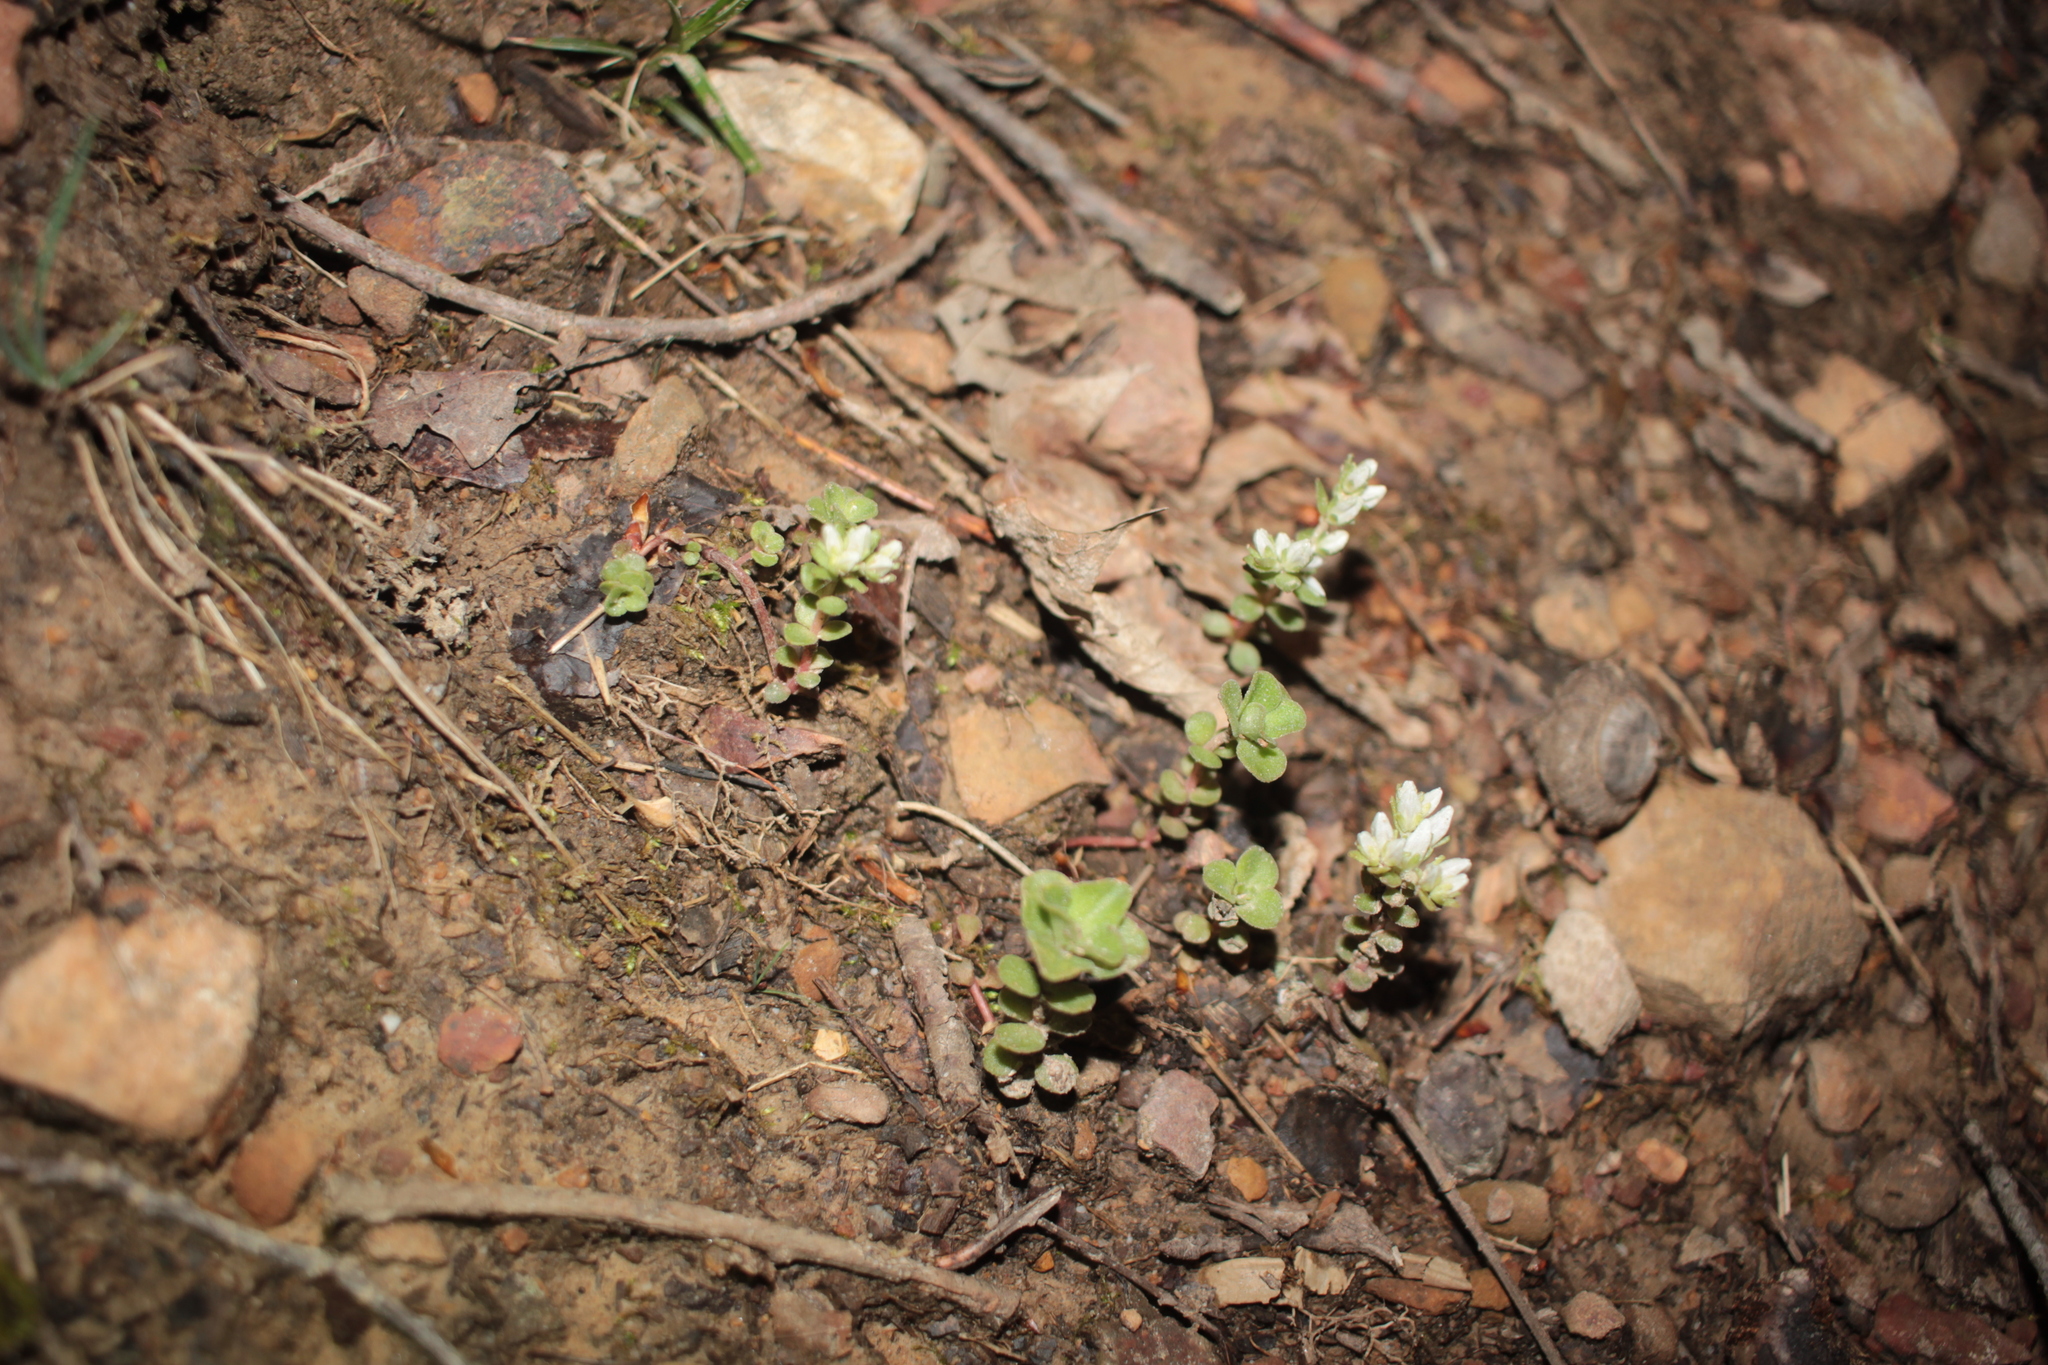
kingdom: Plantae
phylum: Tracheophyta
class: Magnoliopsida
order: Saxifragales
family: Crassulaceae
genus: Sedum
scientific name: Sedum ternatum
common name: Wild stonecrop
